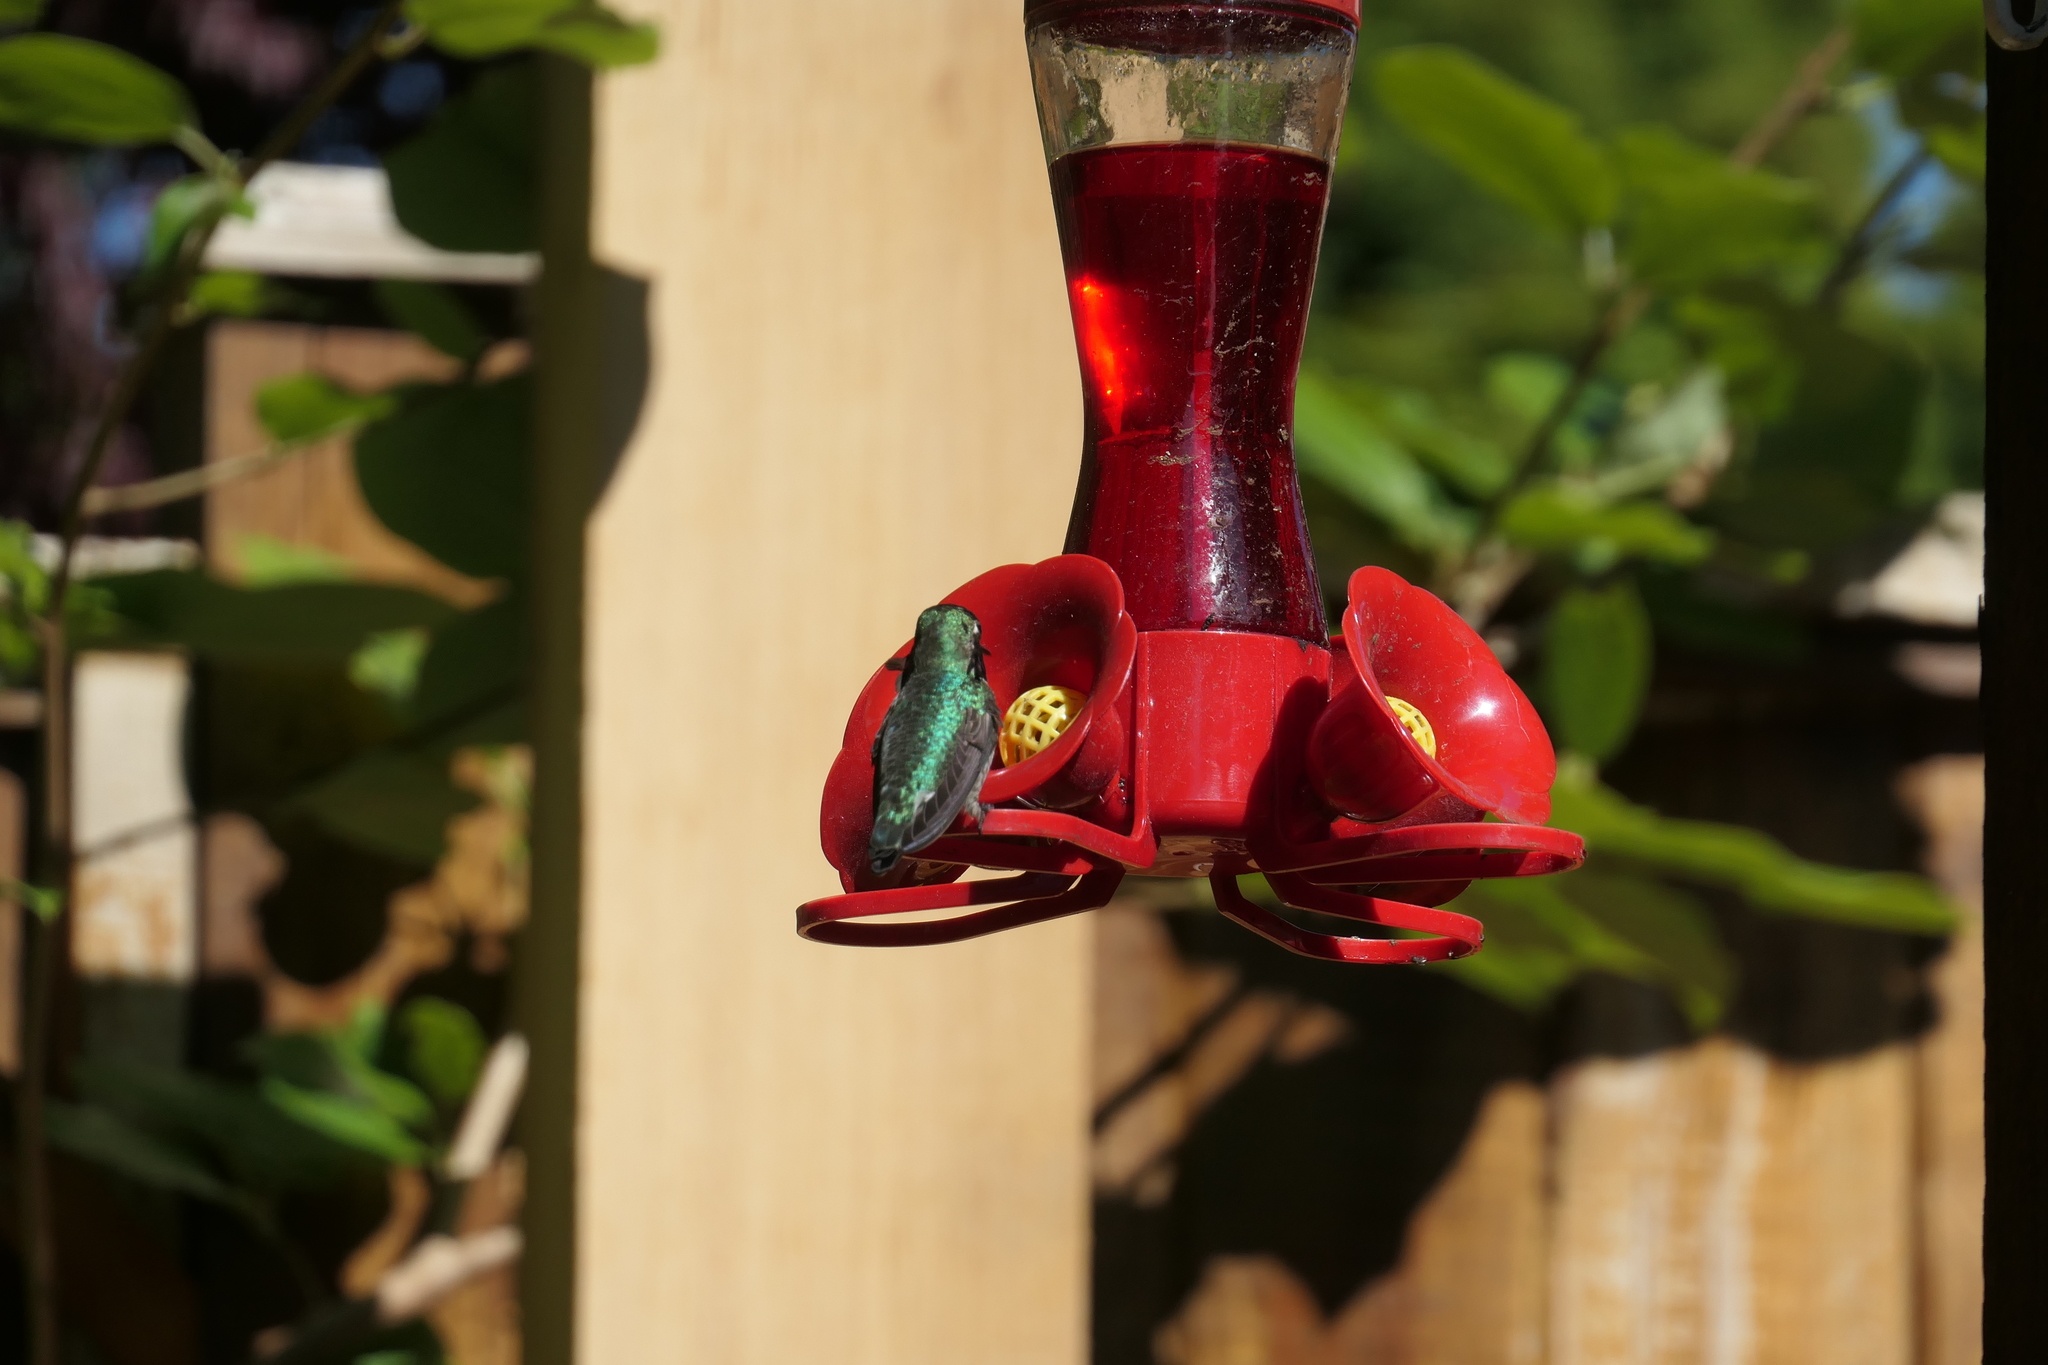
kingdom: Animalia
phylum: Chordata
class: Aves
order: Apodiformes
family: Trochilidae
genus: Calypte
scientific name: Calypte anna
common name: Anna's hummingbird
